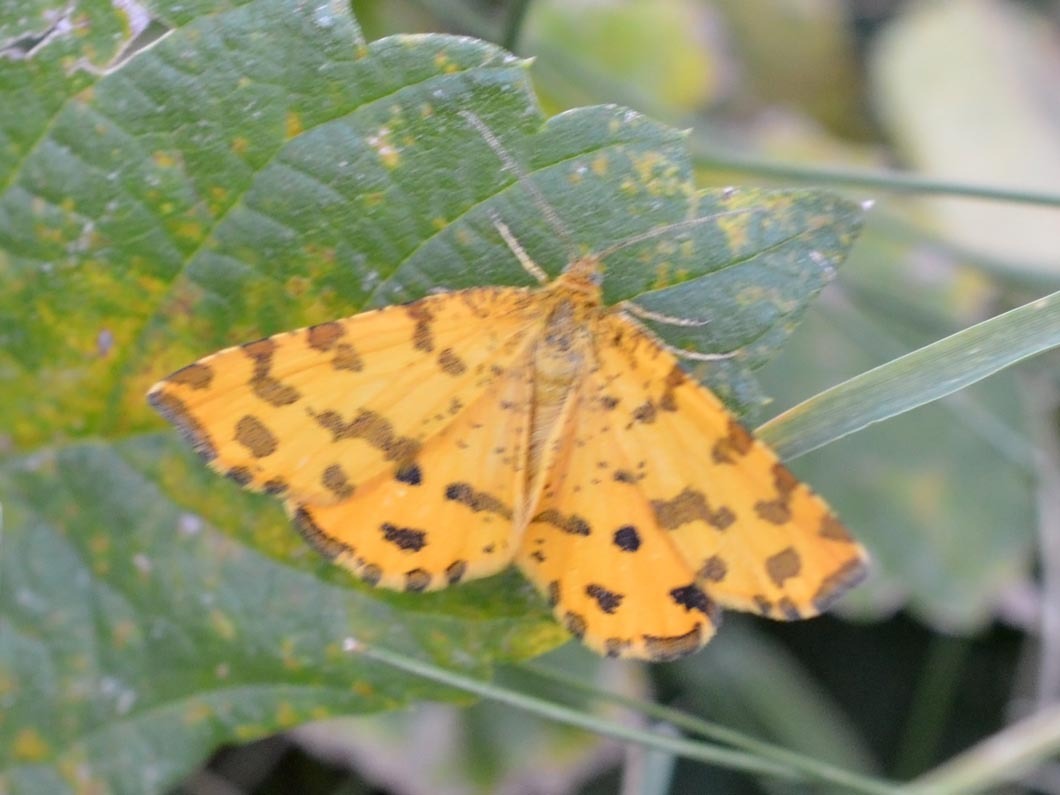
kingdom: Animalia
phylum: Arthropoda
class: Insecta
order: Lepidoptera
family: Geometridae
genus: Pseudopanthera
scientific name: Pseudopanthera macularia
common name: Speckled yellow
